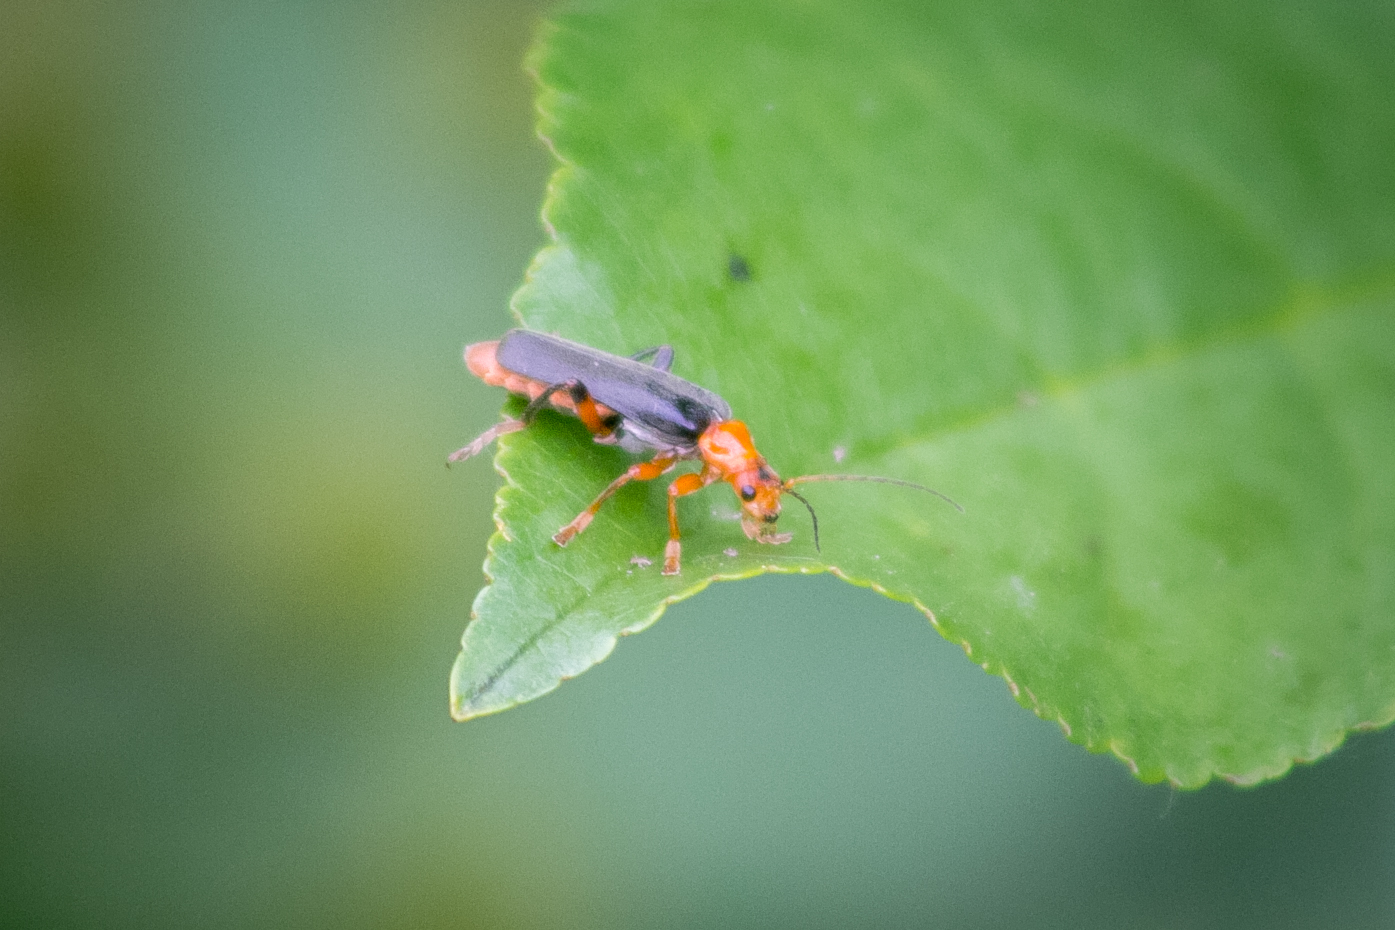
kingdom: Animalia
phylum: Arthropoda
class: Insecta
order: Coleoptera
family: Cantharidae
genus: Cantharis
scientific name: Cantharis livida
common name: Livid soldier beetle
